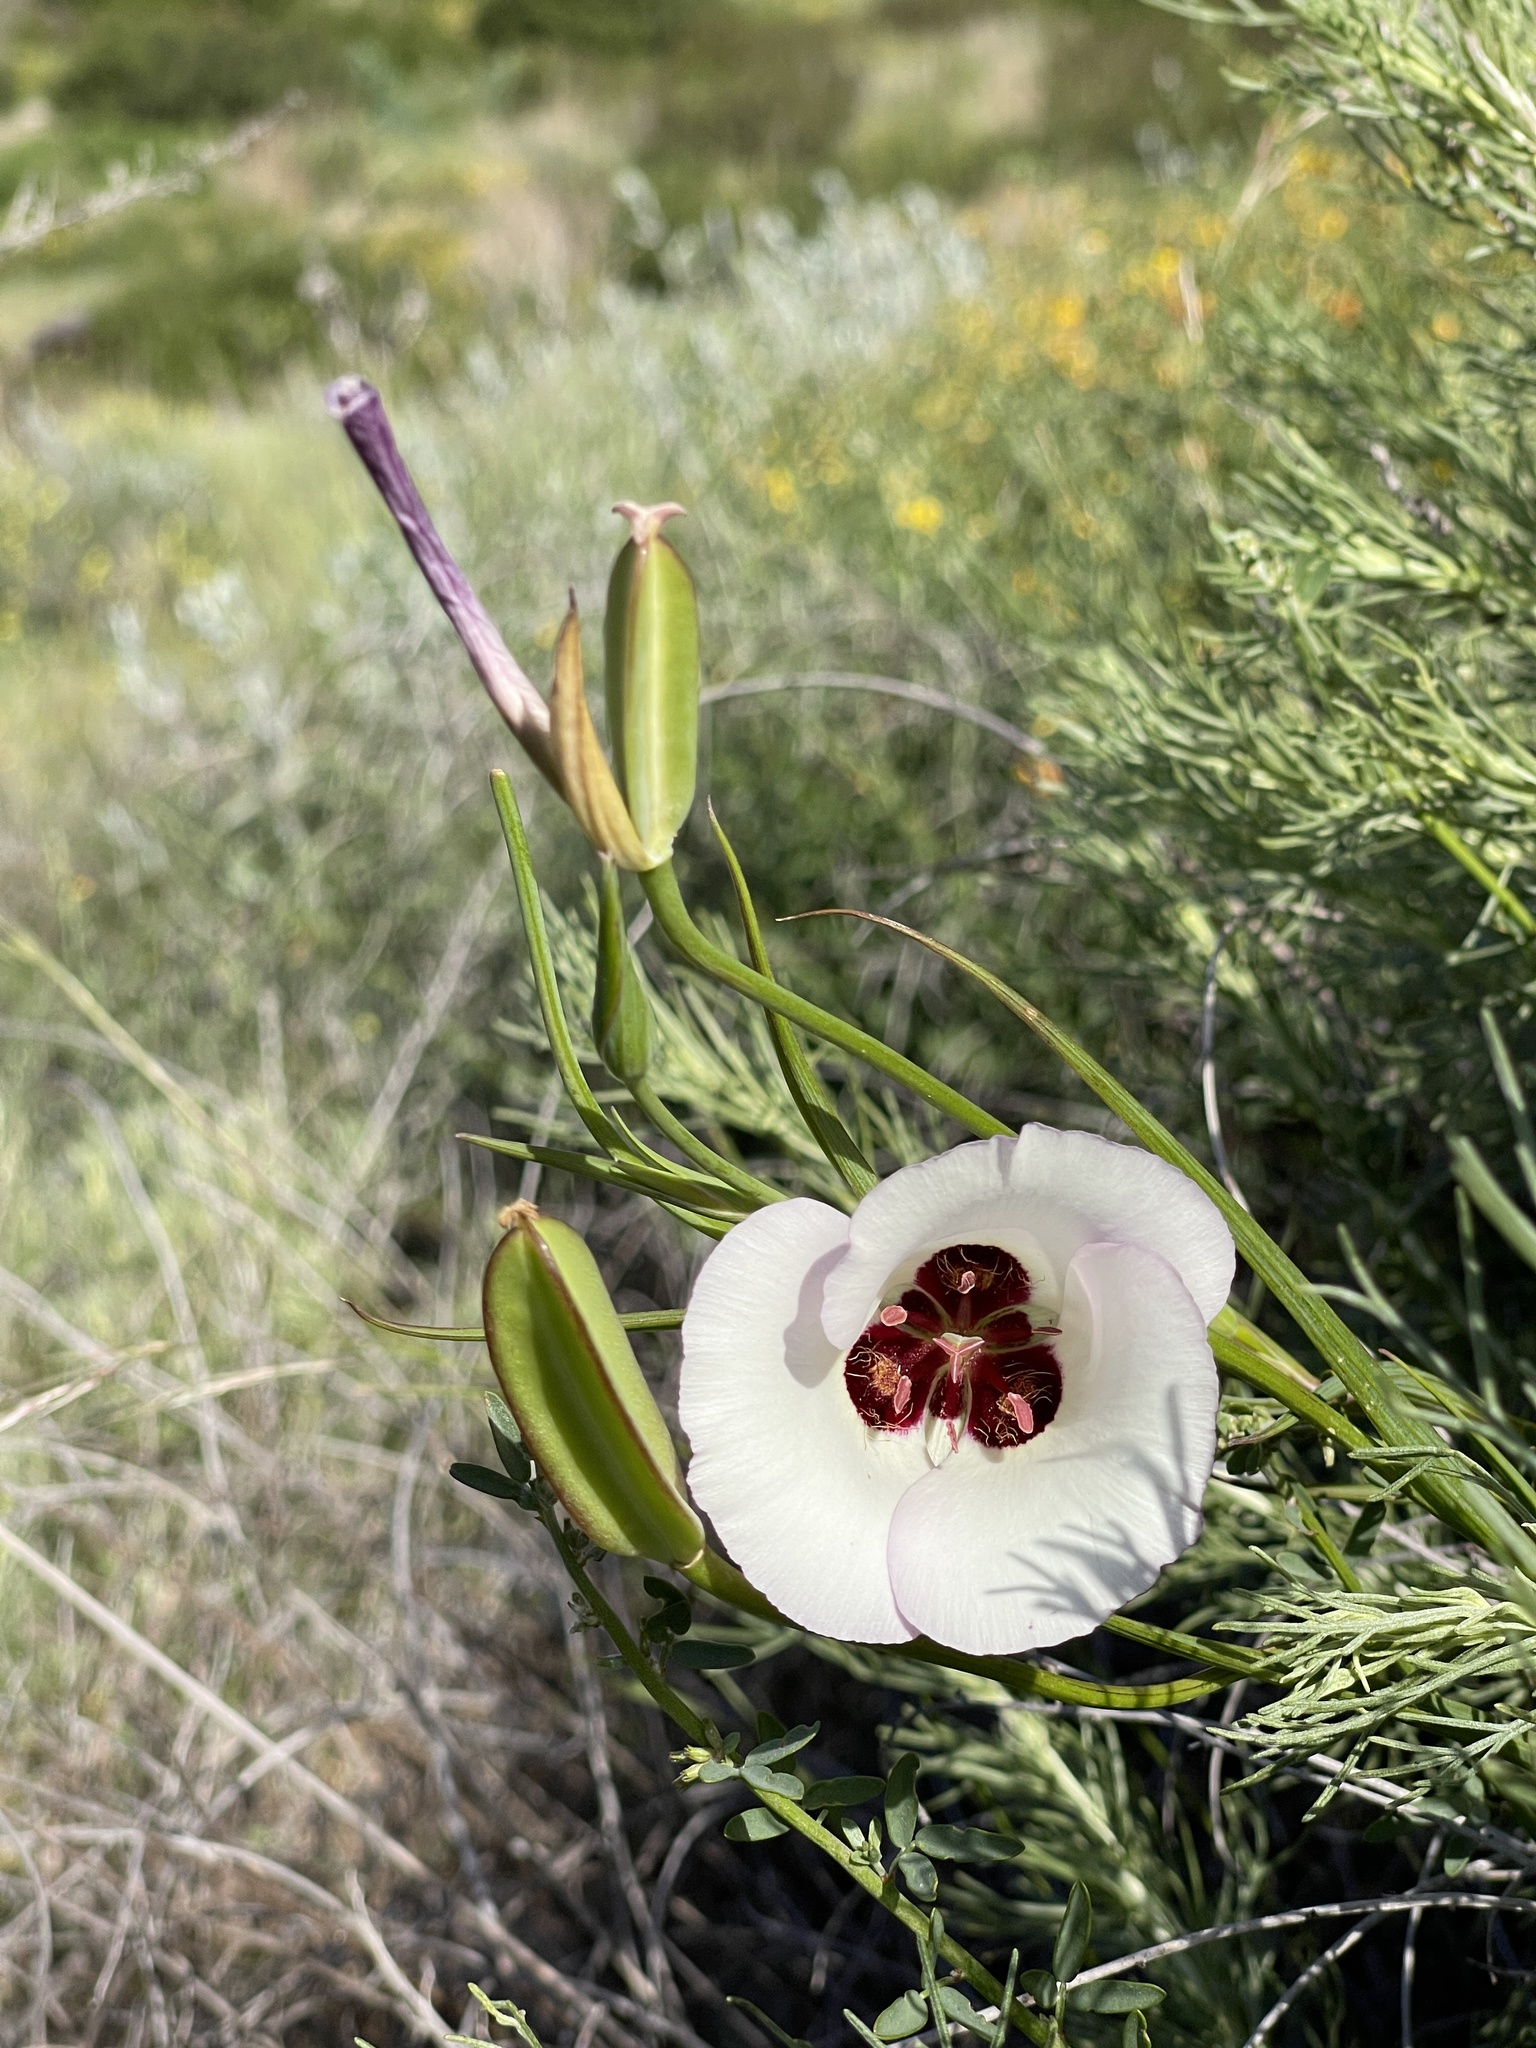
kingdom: Plantae
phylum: Tracheophyta
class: Liliopsida
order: Liliales
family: Liliaceae
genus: Calochortus
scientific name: Calochortus catalinae
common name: Catalina mariposa-lily
